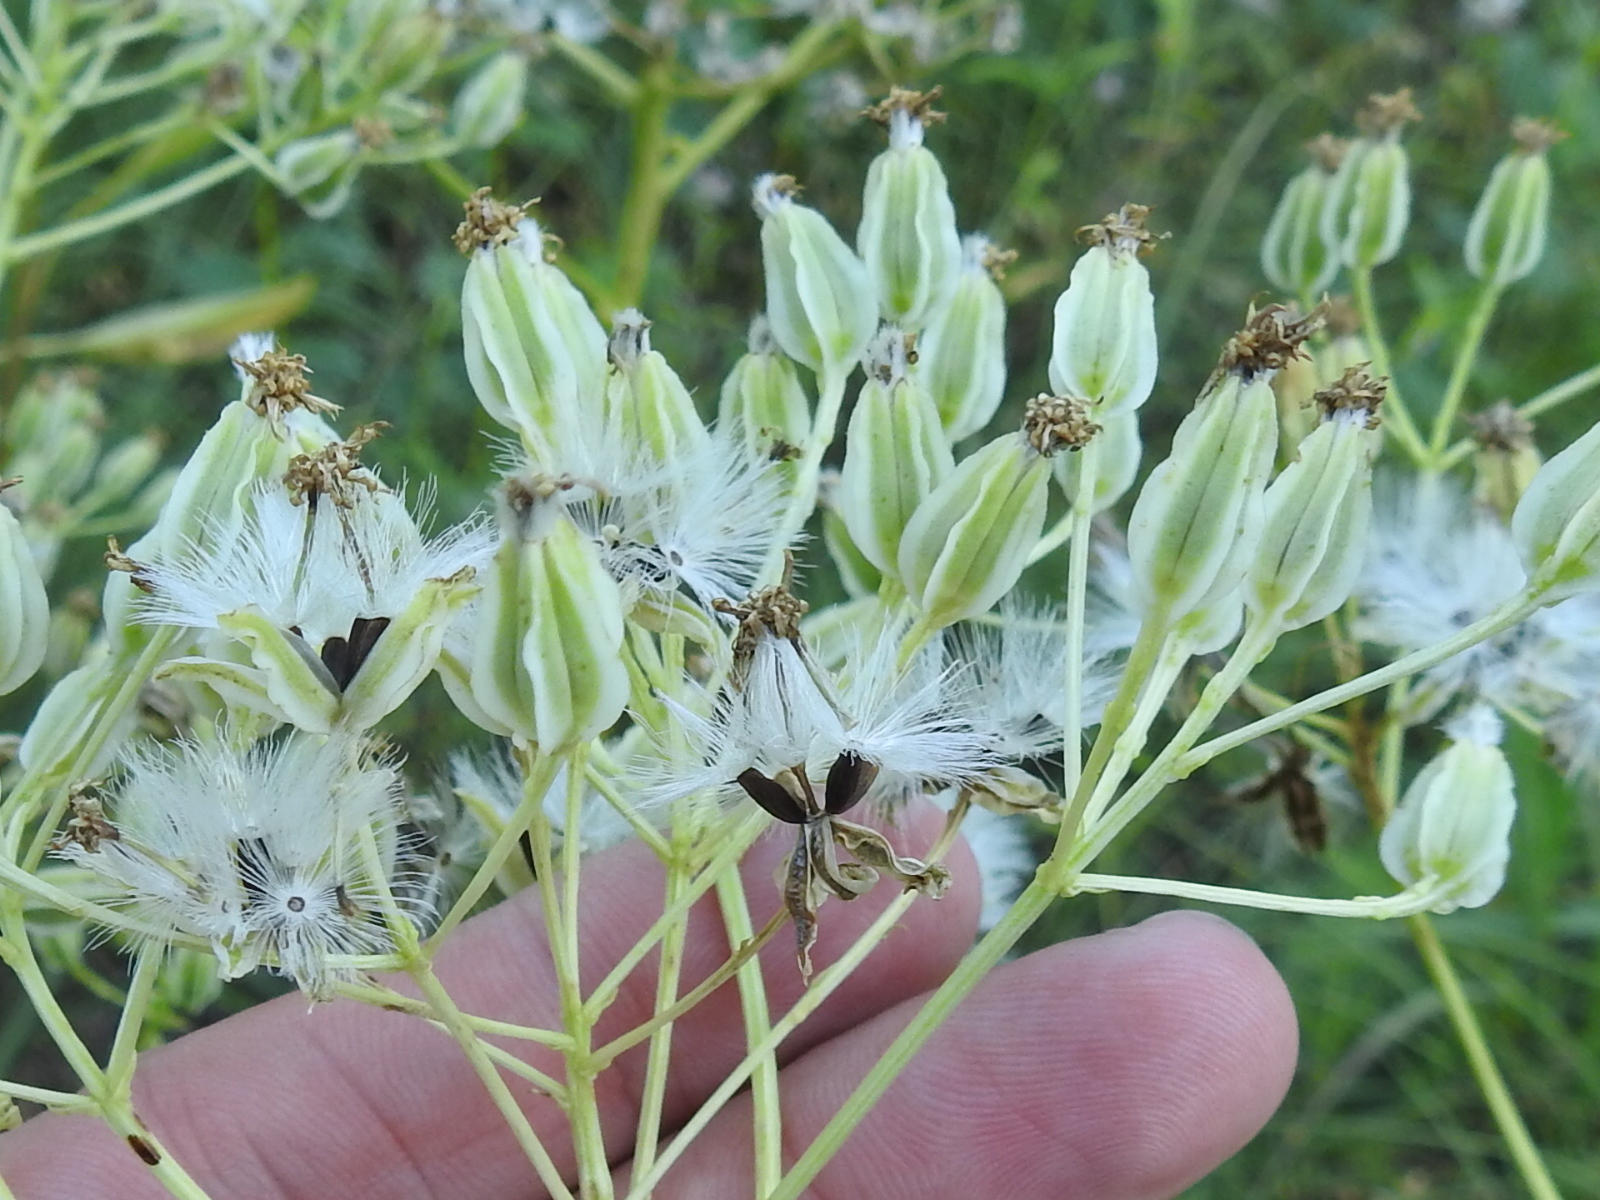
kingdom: Plantae
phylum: Tracheophyta
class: Magnoliopsida
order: Asterales
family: Asteraceae
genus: Arnoglossum
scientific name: Arnoglossum plantagineum
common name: Groove-stemmed indian-plantain
